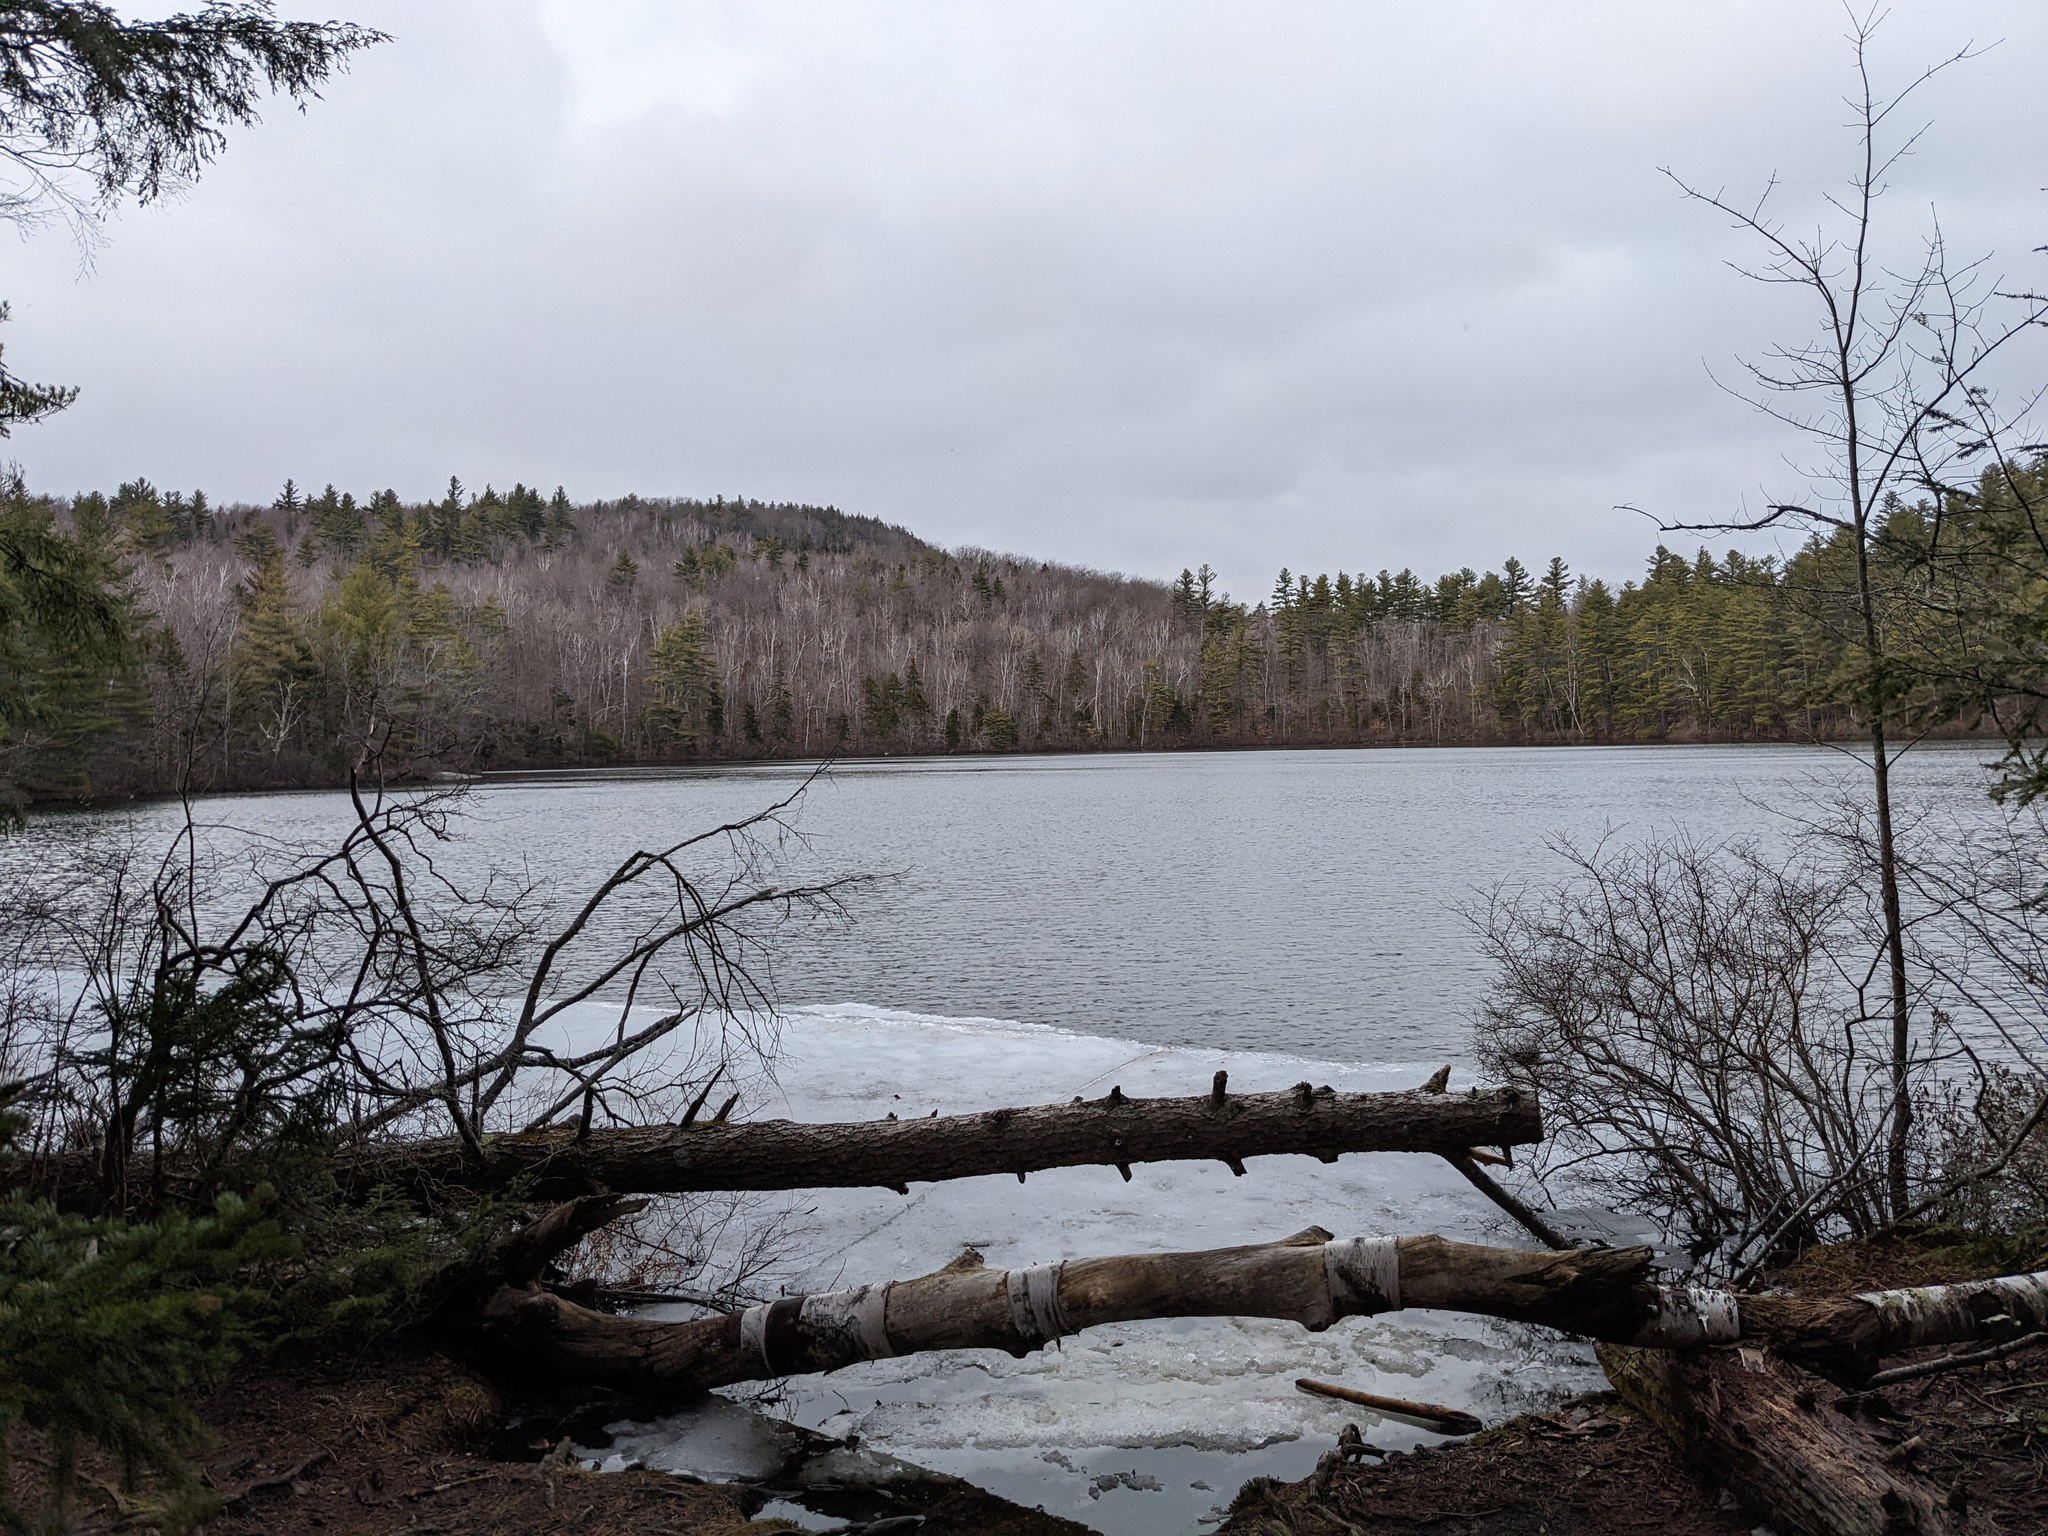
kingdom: Plantae
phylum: Tracheophyta
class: Pinopsida
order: Pinales
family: Pinaceae
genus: Pinus
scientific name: Pinus strobus
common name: Weymouth pine
